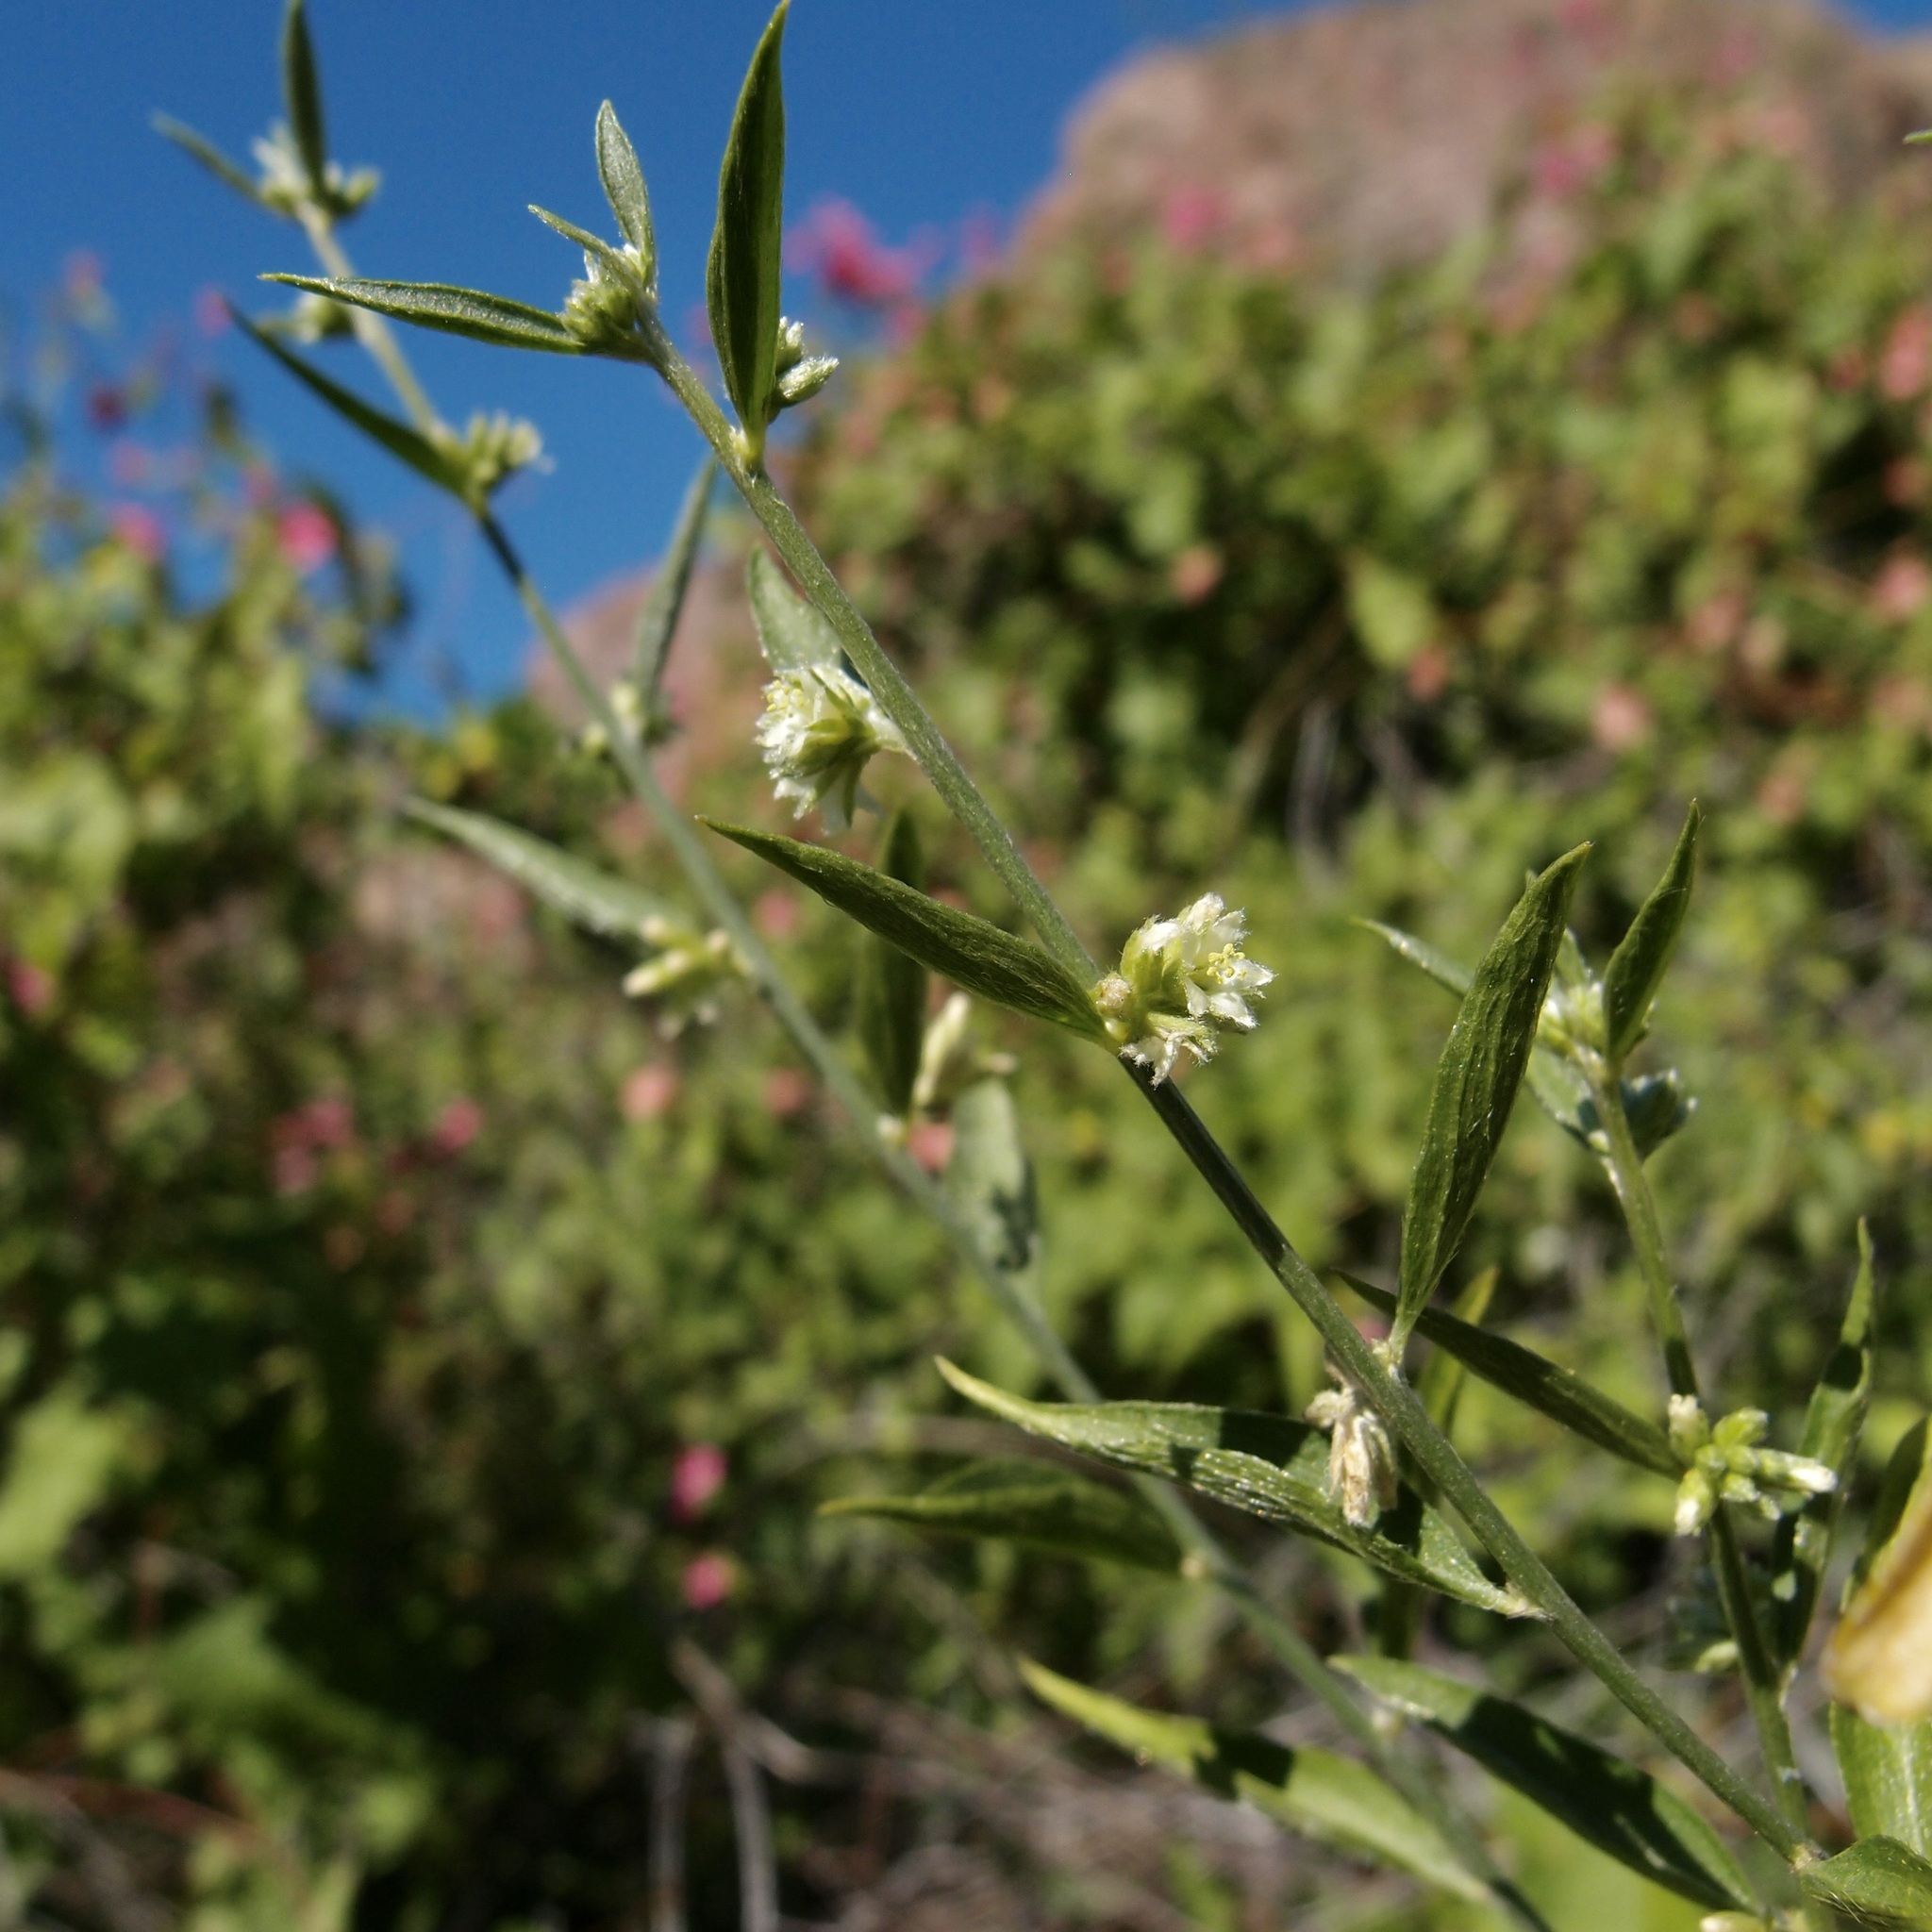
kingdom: Plantae
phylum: Tracheophyta
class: Magnoliopsida
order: Malpighiales
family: Euphorbiaceae
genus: Ditaxis
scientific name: Ditaxis lanceolata
